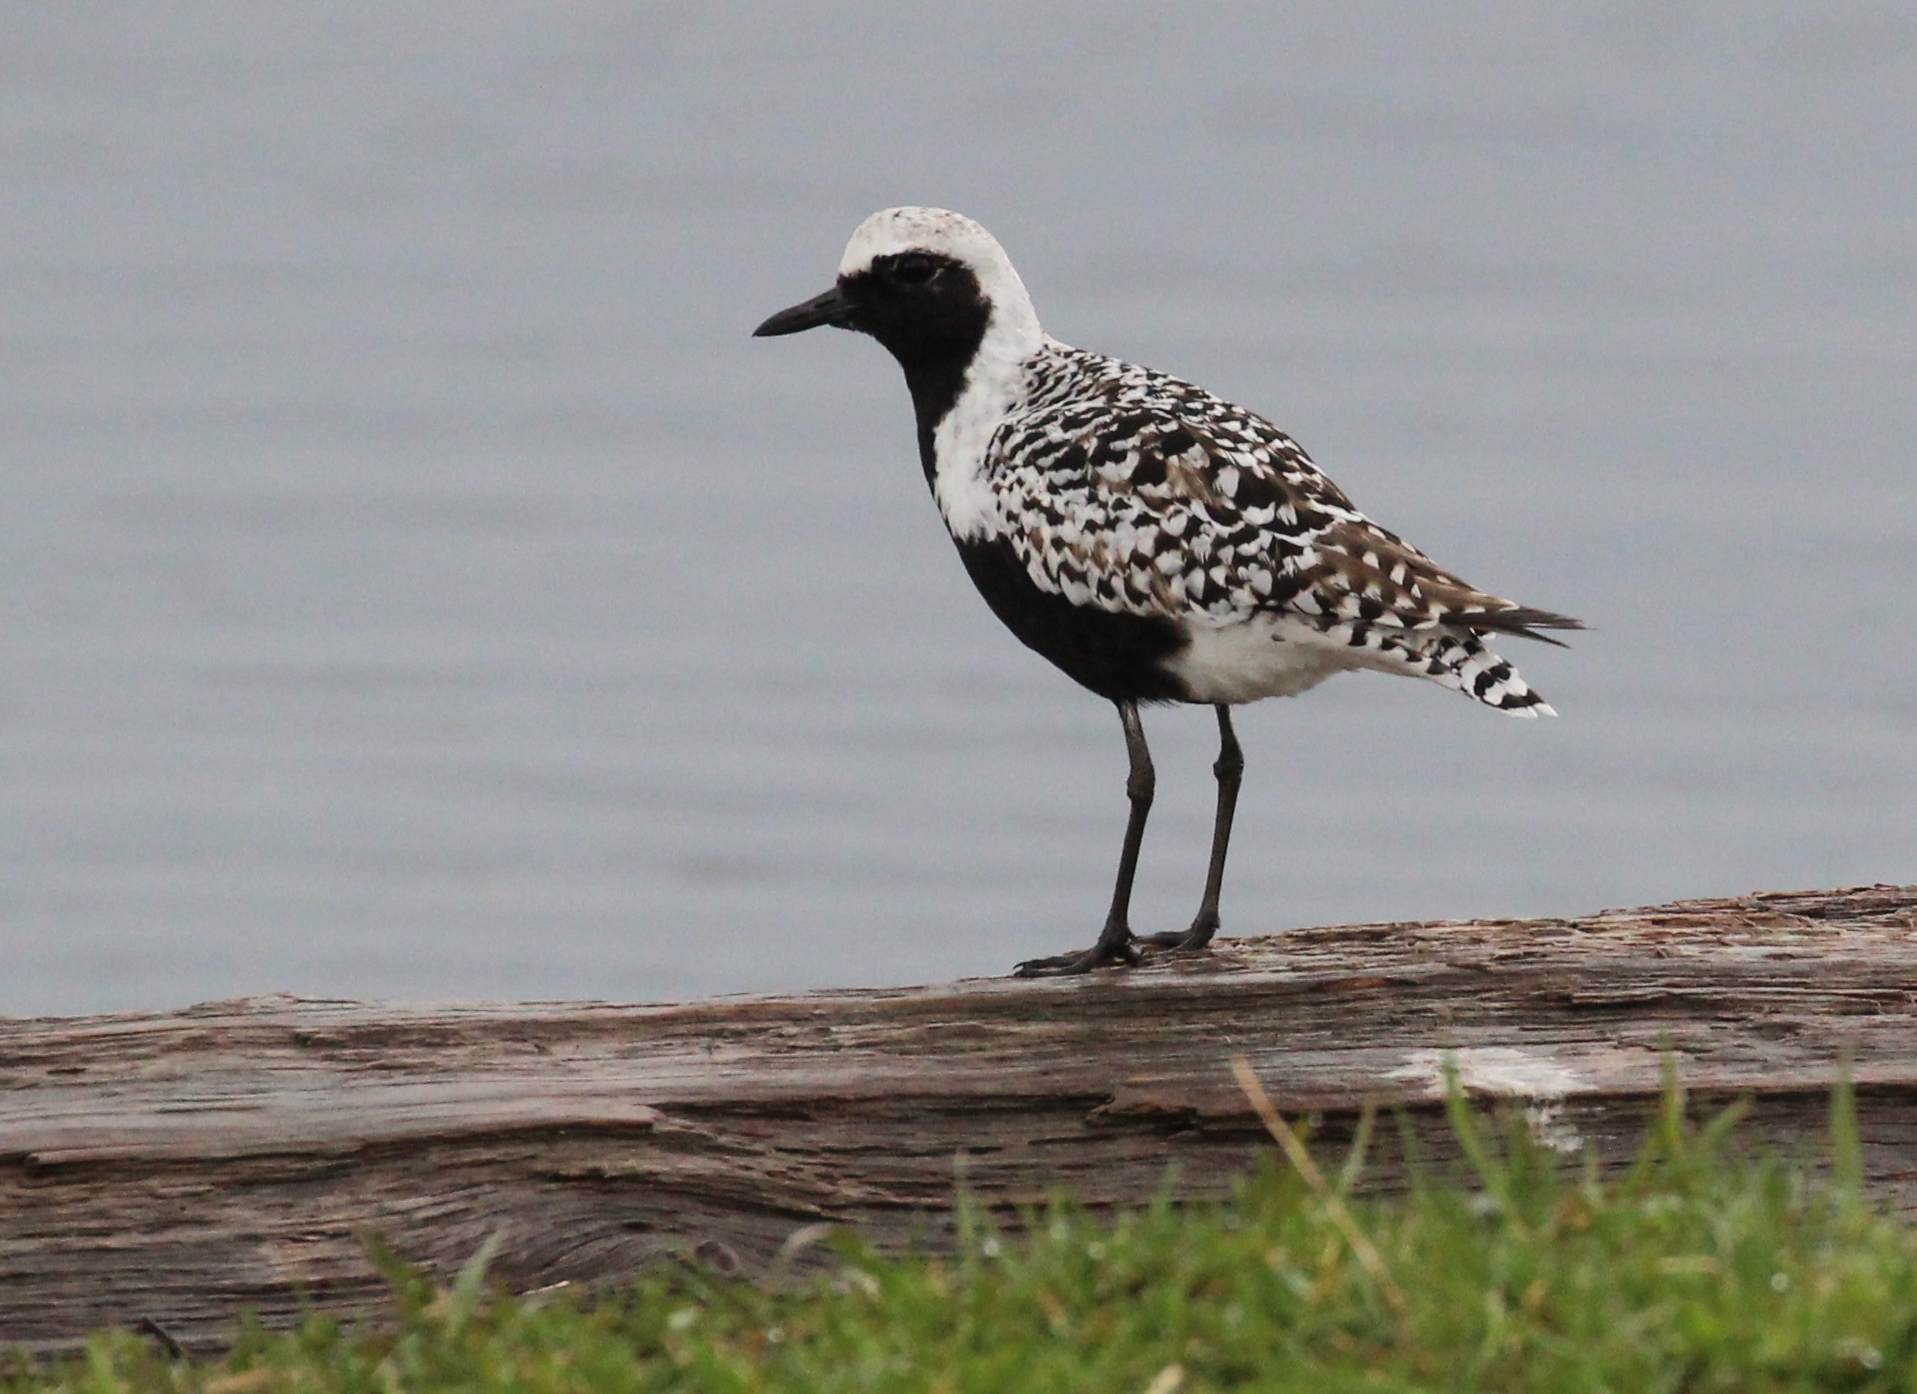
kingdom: Animalia
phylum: Chordata
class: Aves
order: Charadriiformes
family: Charadriidae
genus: Pluvialis
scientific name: Pluvialis squatarola
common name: Grey plover
